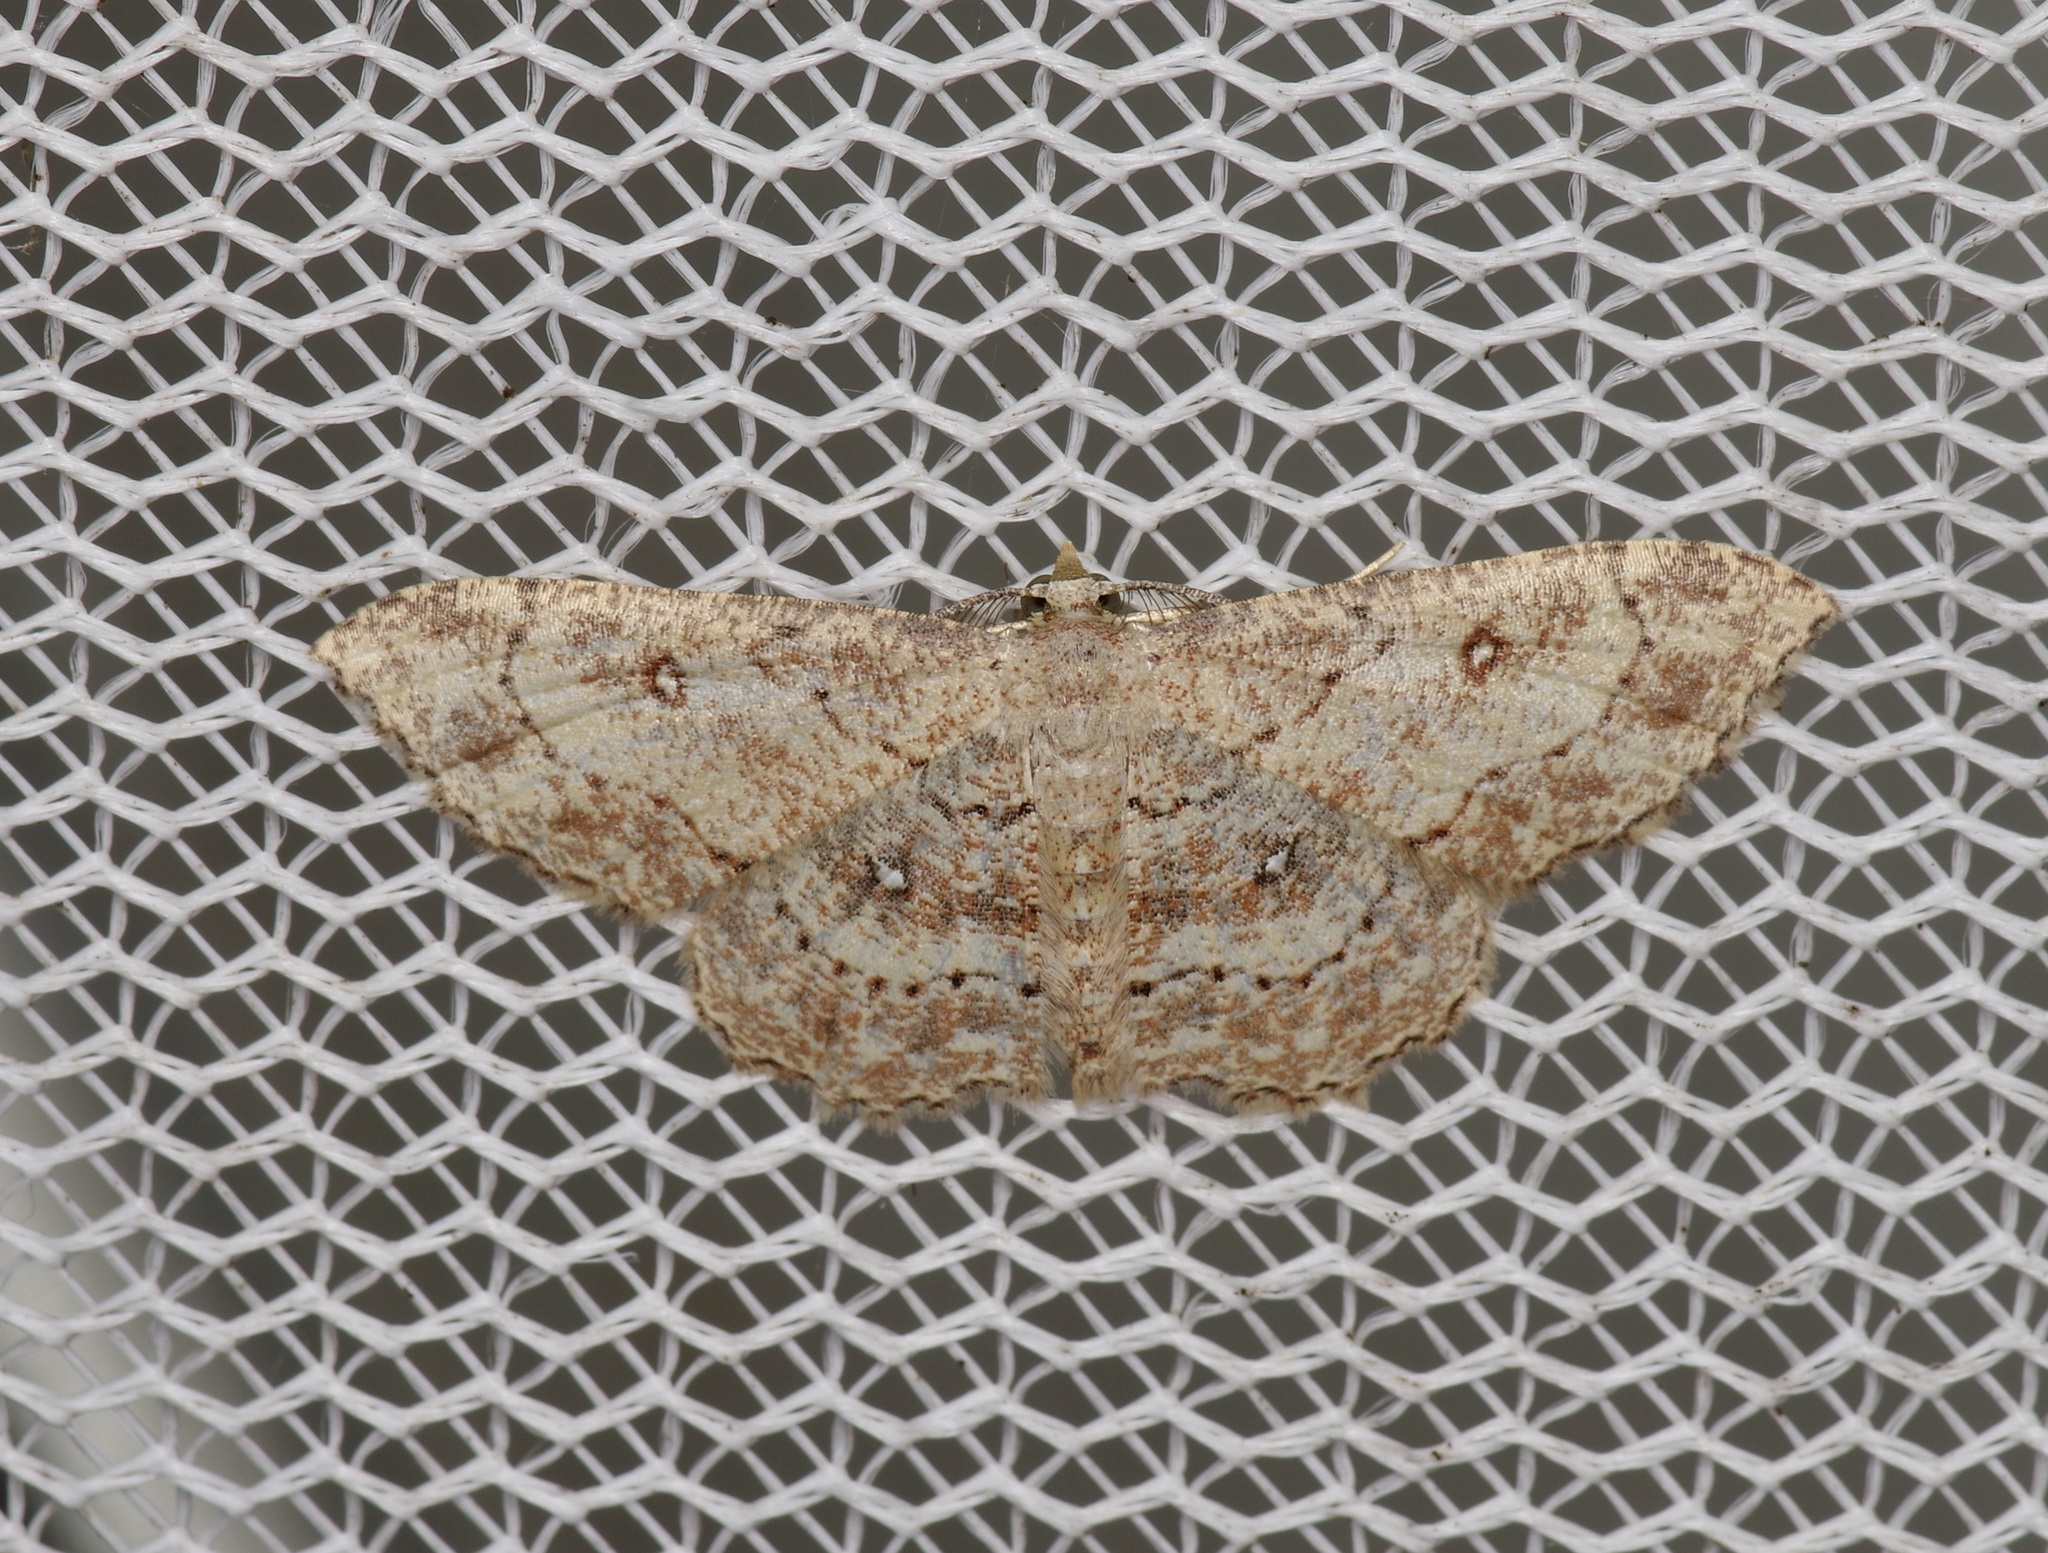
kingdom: Animalia
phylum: Arthropoda
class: Insecta
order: Lepidoptera
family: Geometridae
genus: Cyclophora
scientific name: Cyclophora nanaria
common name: Cankerworm
